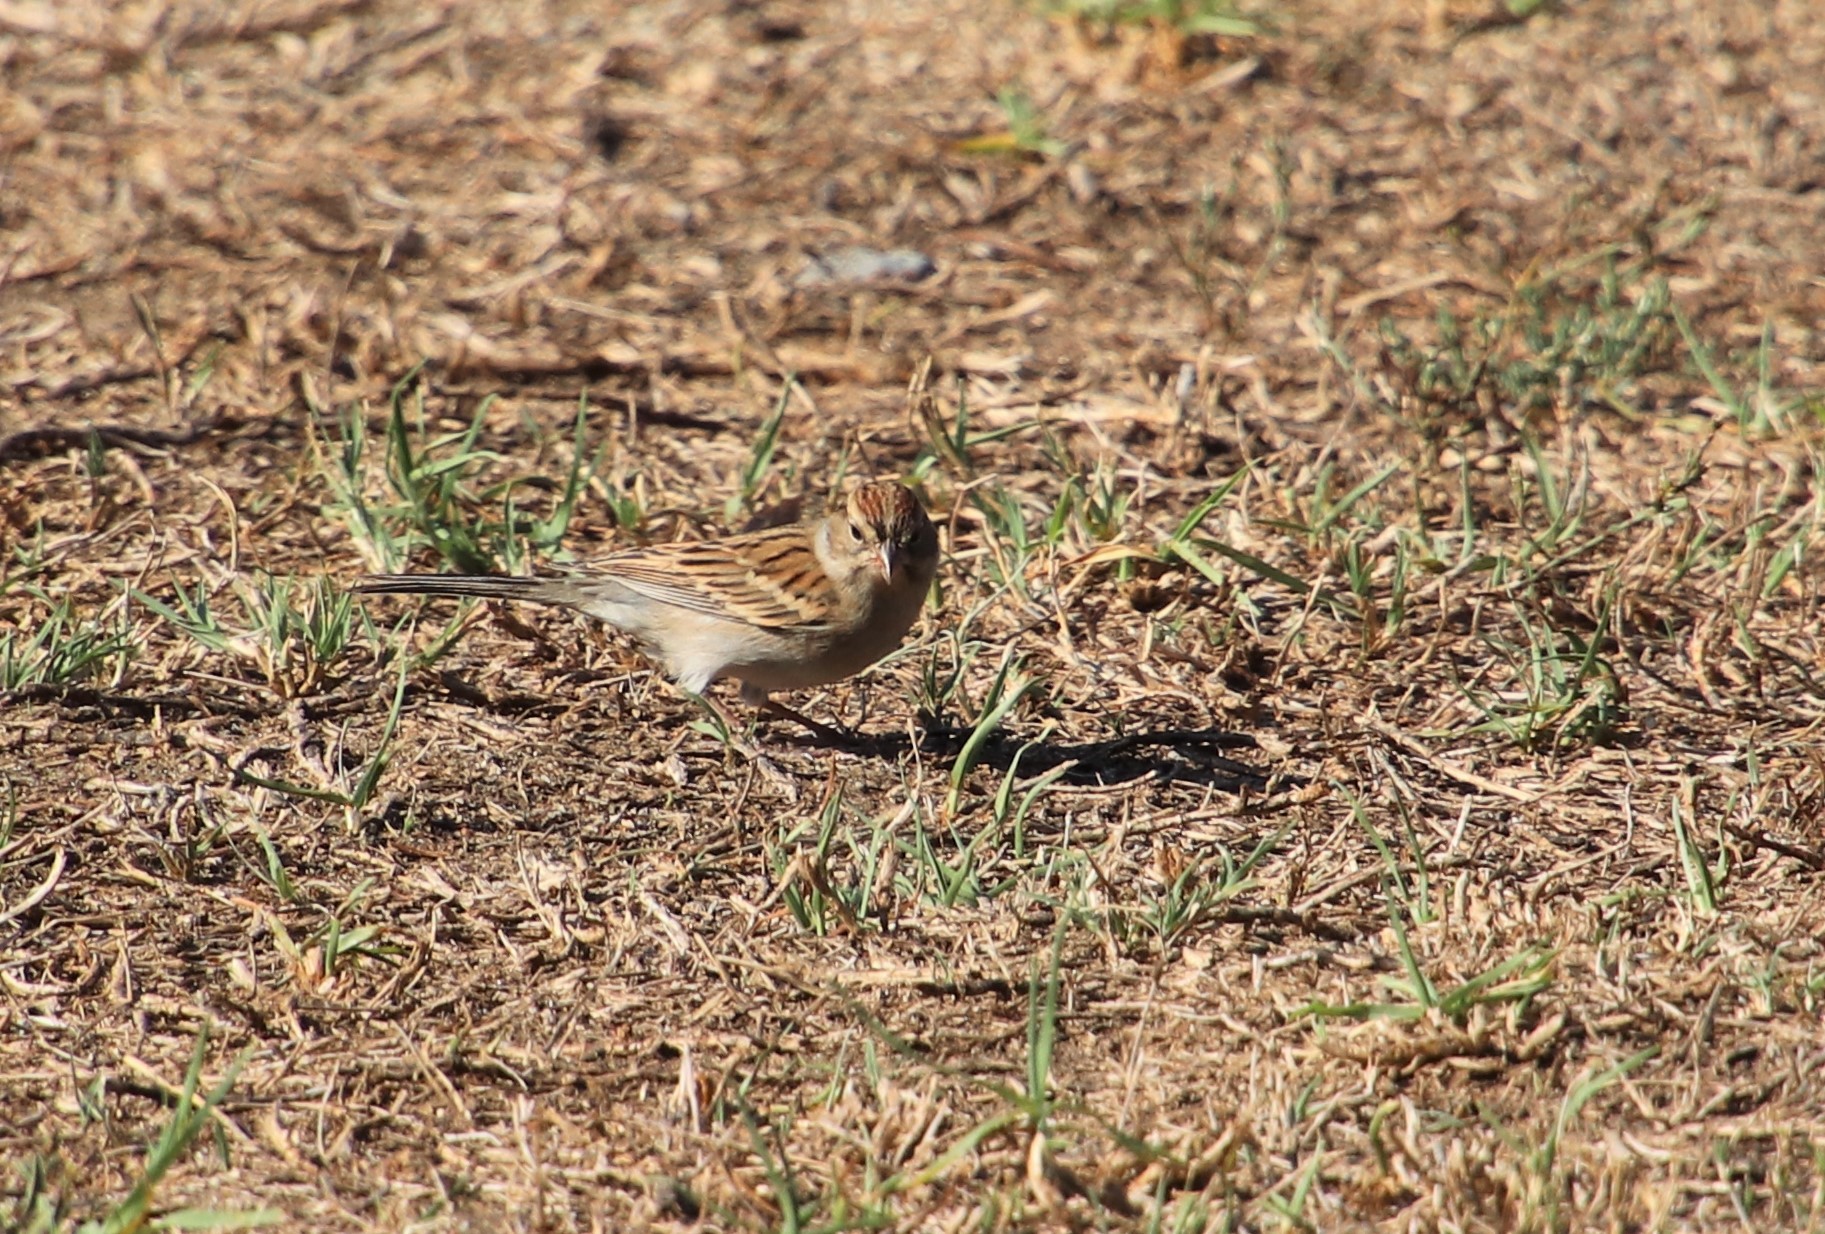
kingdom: Animalia
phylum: Chordata
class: Aves
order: Passeriformes
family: Passerellidae
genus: Spizella
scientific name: Spizella passerina
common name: Chipping sparrow
